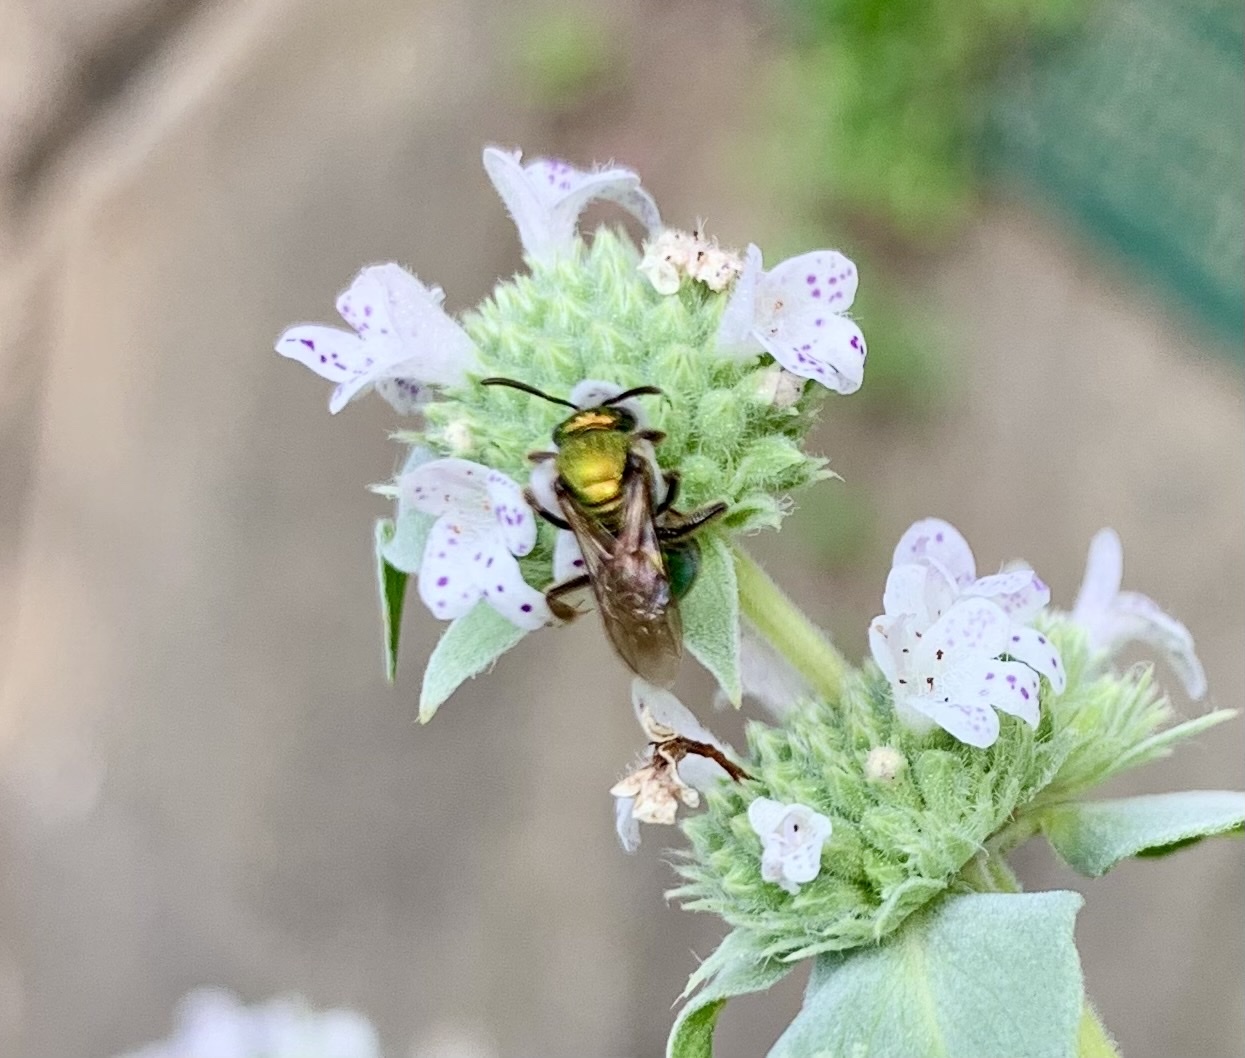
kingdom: Animalia
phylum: Arthropoda
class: Insecta
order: Hymenoptera
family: Halictidae
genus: Augochlora
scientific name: Augochlora pura
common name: Pure green sweat bee
